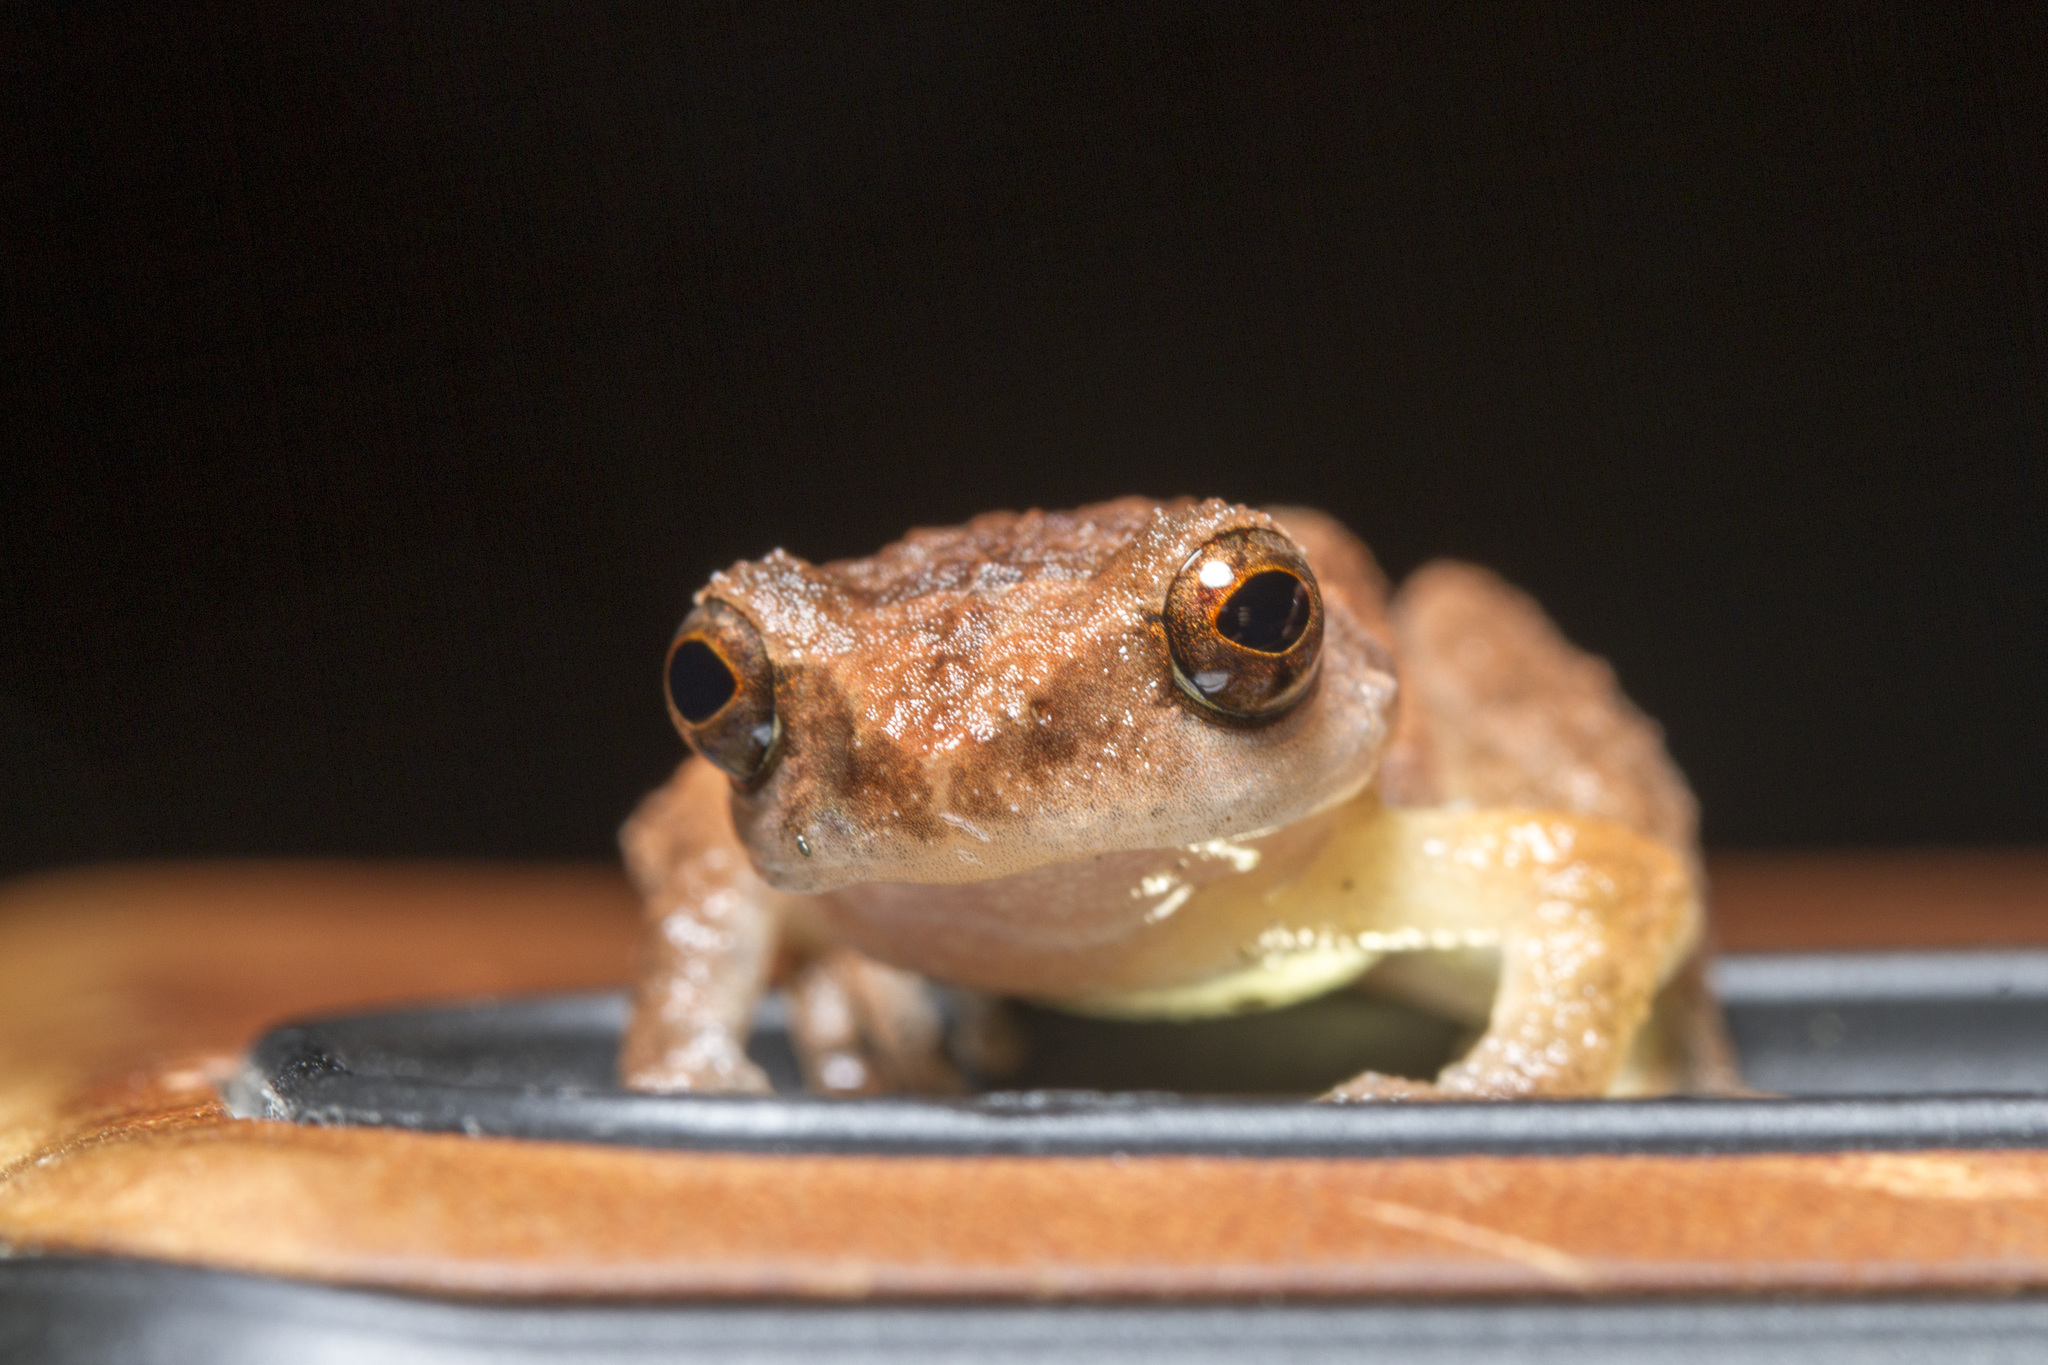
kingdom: Animalia
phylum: Chordata
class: Amphibia
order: Anura
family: Rhacophoridae
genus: Raorchestes
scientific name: Raorchestes bombayensis
